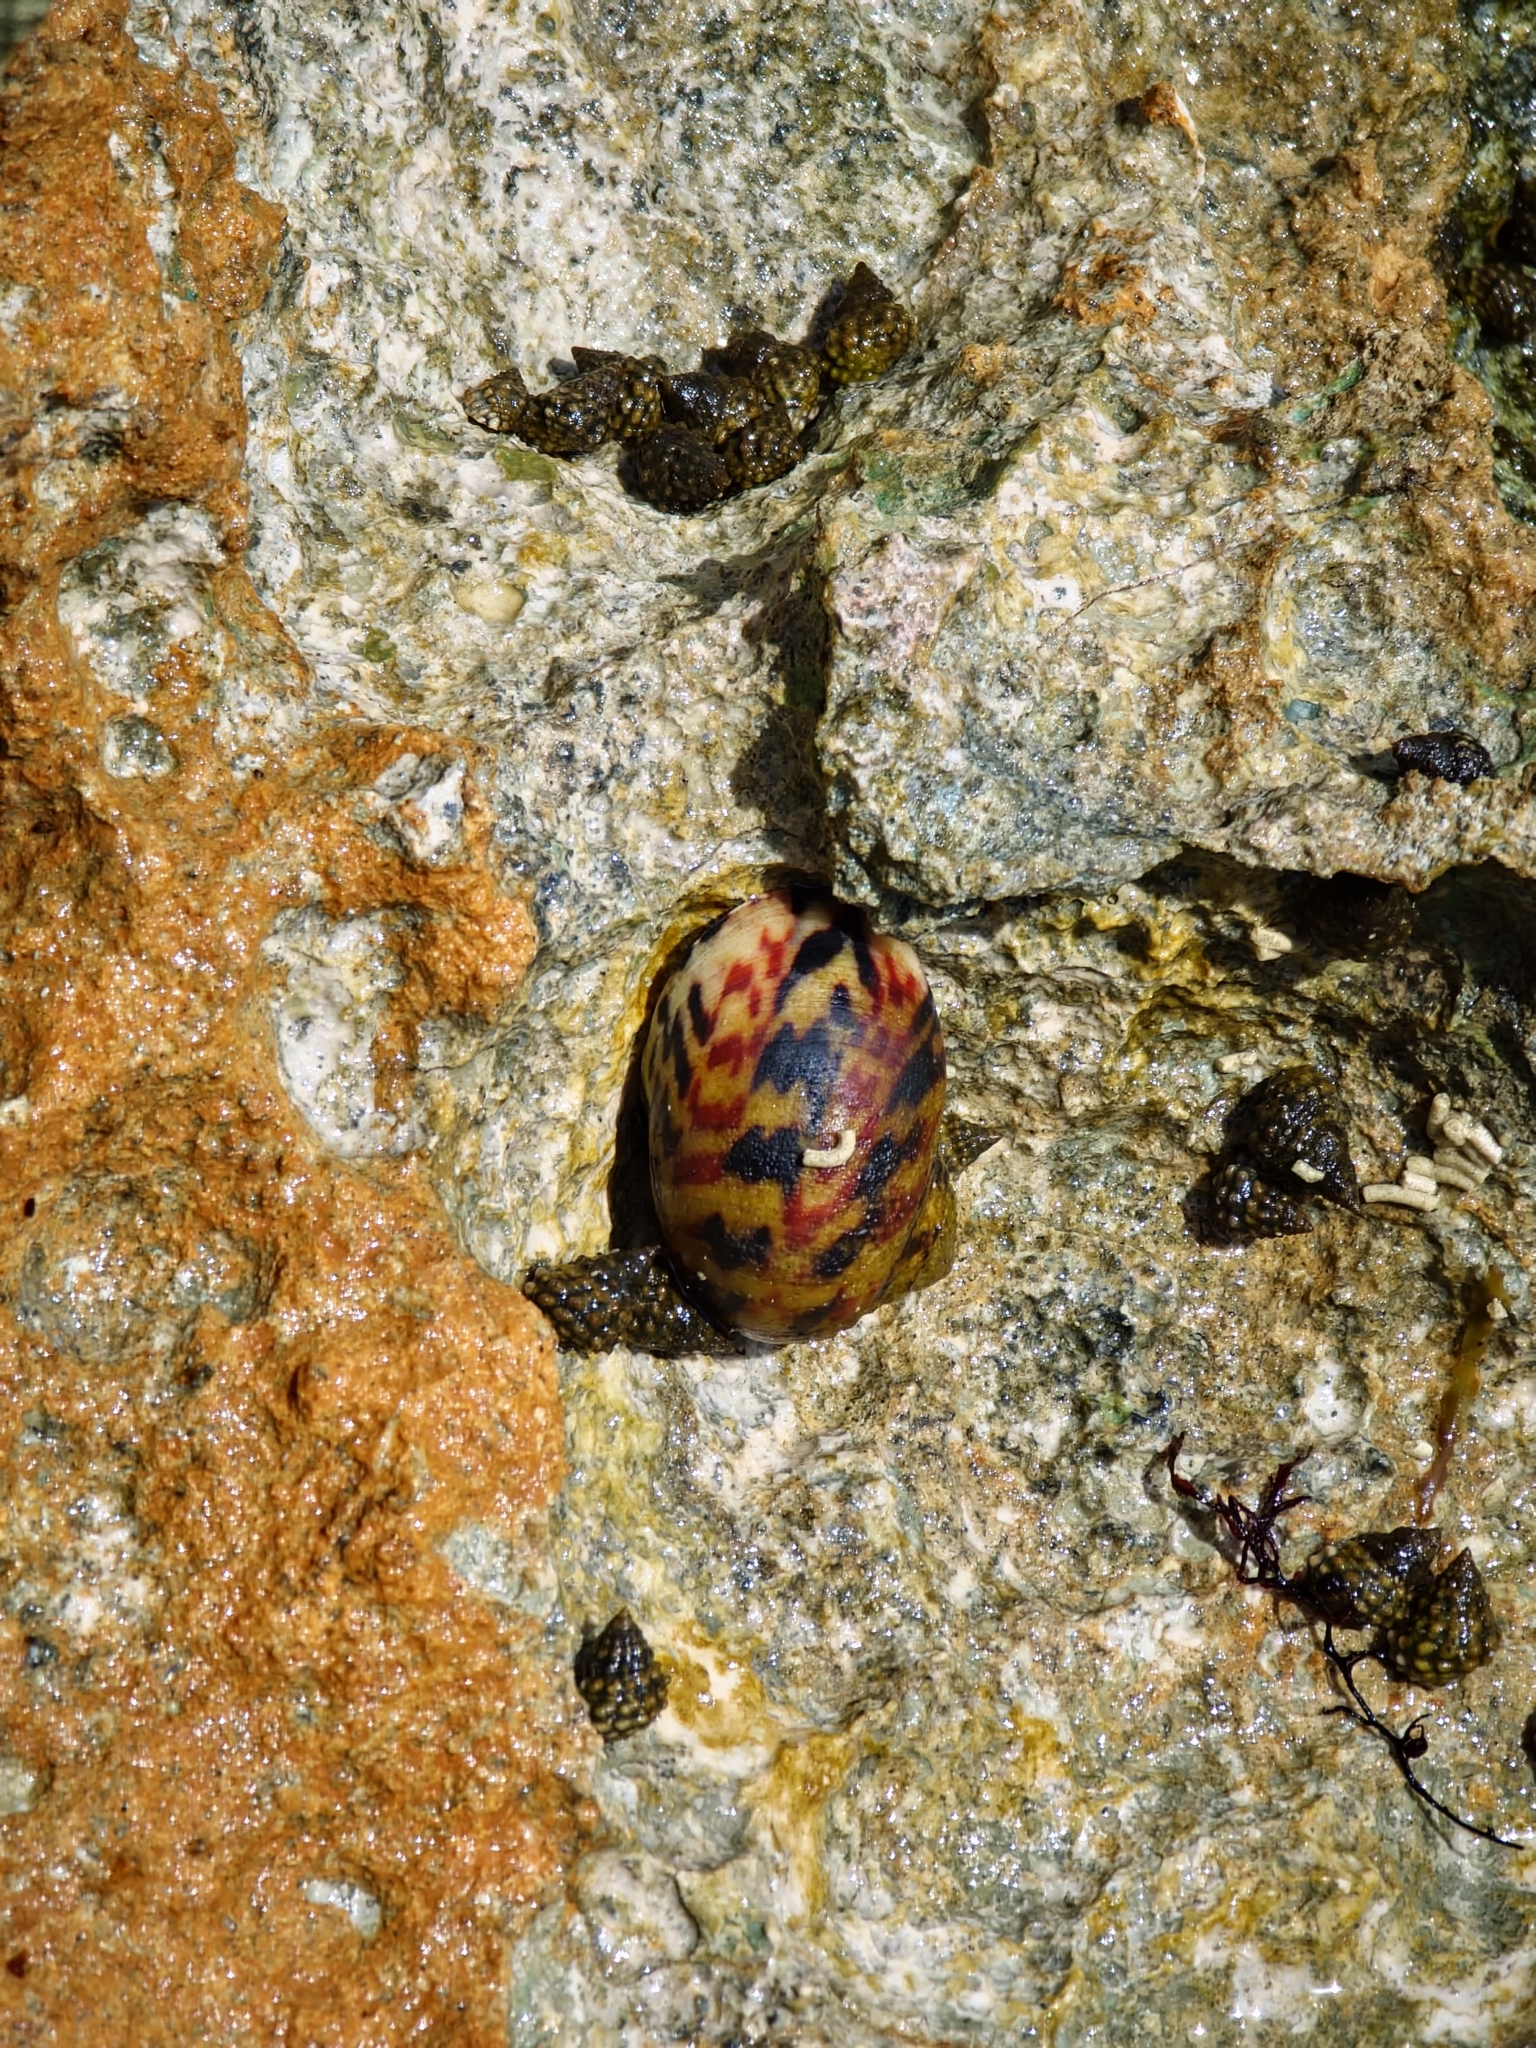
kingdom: Animalia
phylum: Mollusca
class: Gastropoda
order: Cycloneritida
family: Neritidae
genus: Nerita
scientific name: Nerita peloronta
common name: Bleeding tooth
